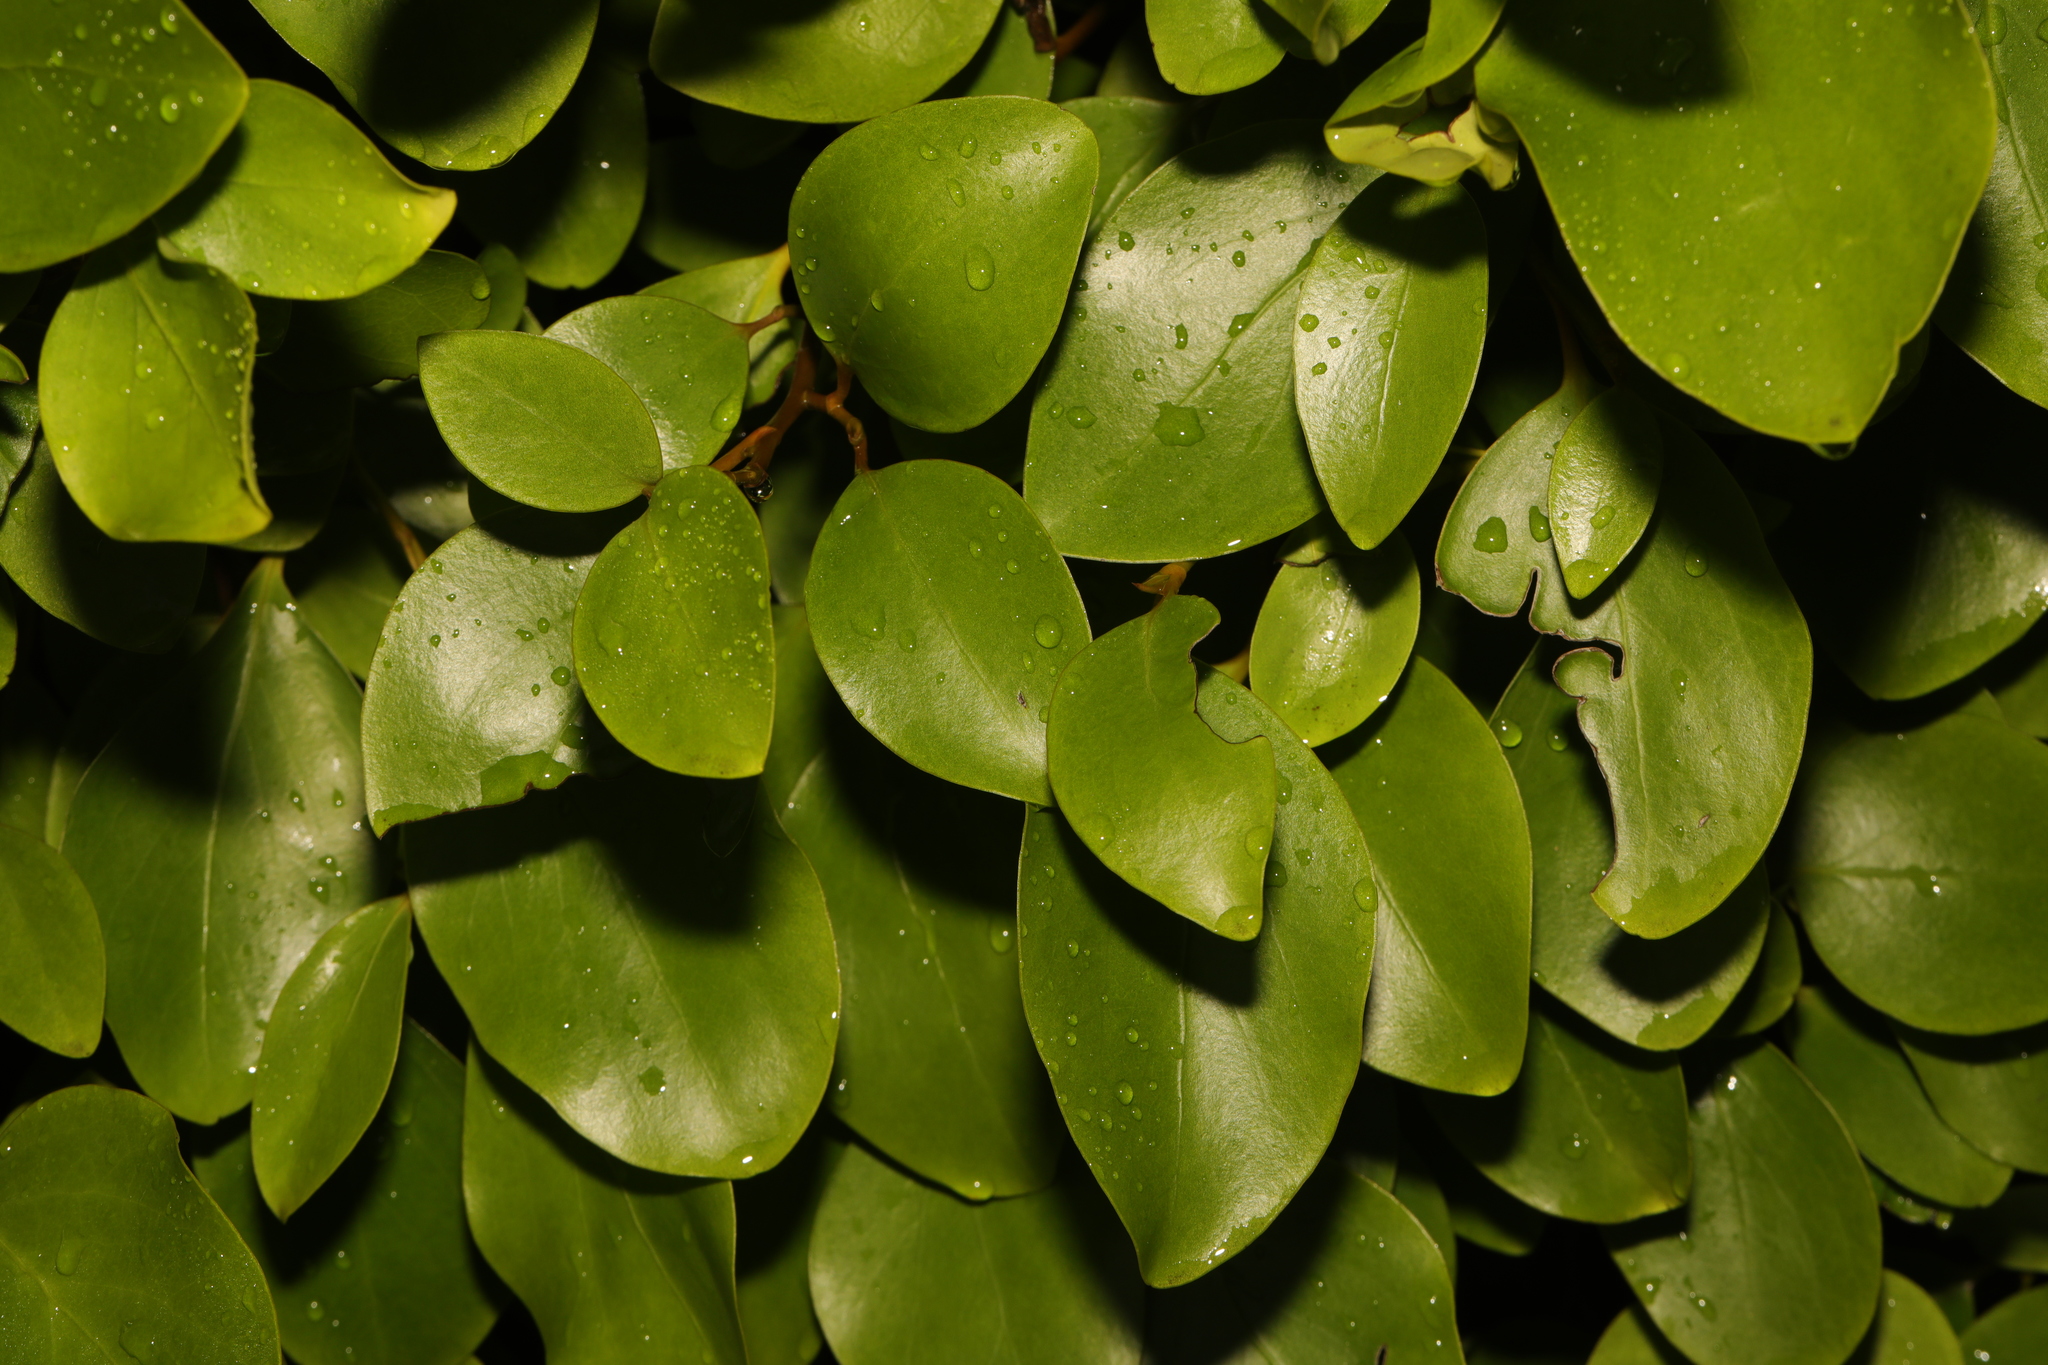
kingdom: Plantae
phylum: Tracheophyta
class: Magnoliopsida
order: Apiales
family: Griseliniaceae
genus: Griselinia
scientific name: Griselinia littoralis
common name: New zealand broadleaf
